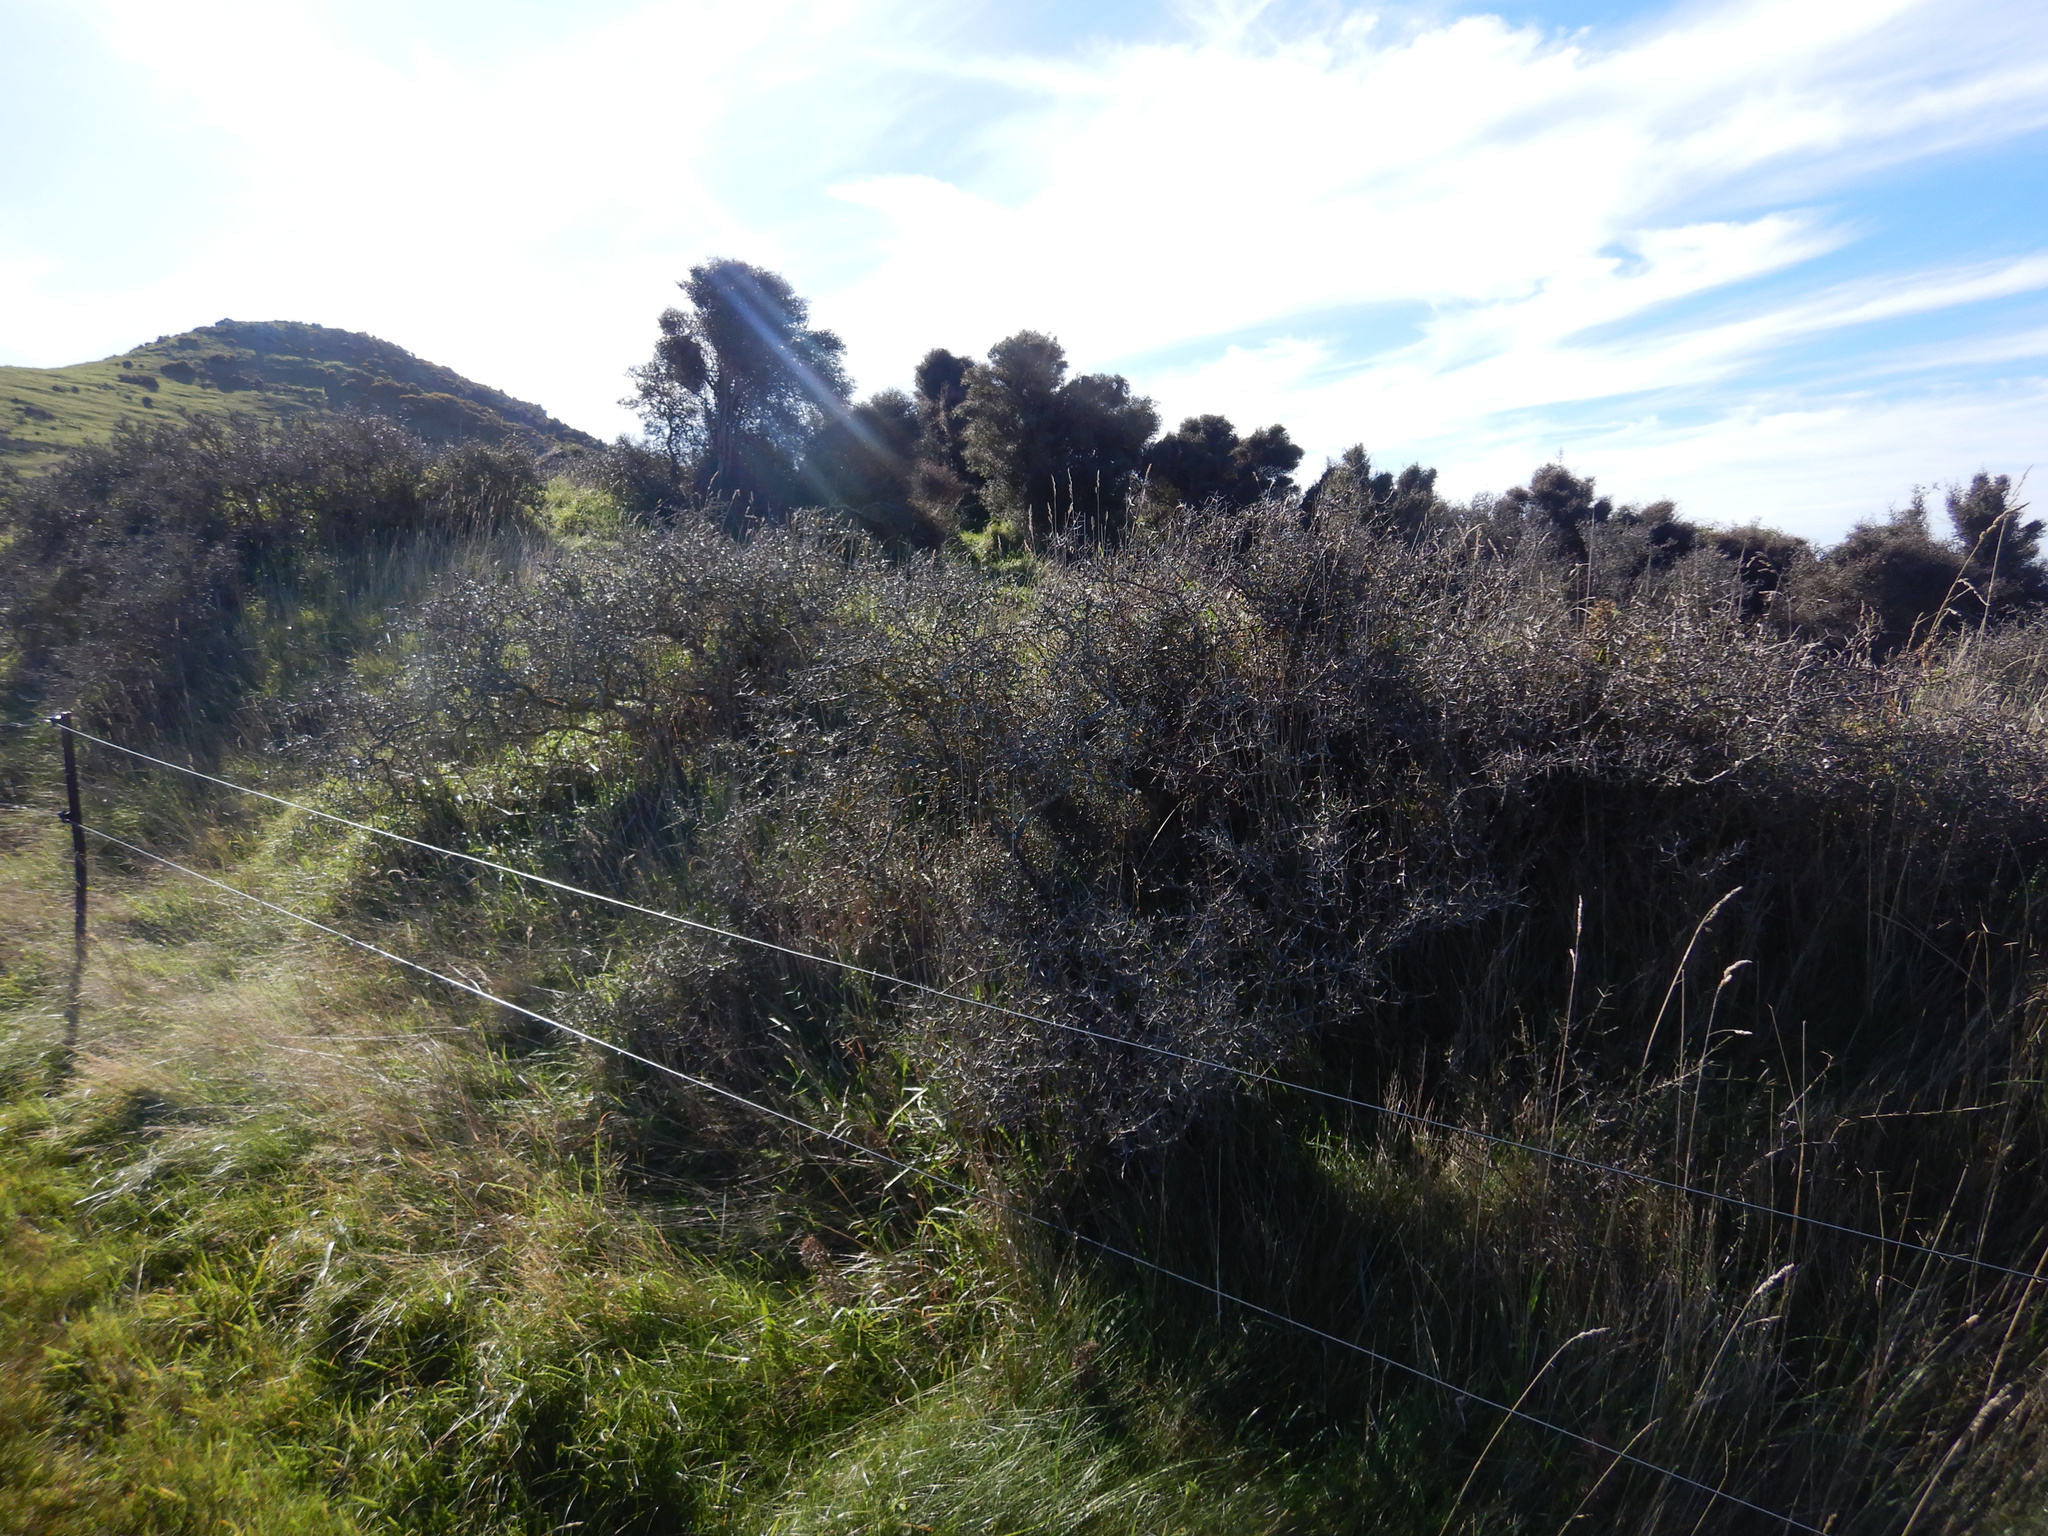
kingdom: Plantae
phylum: Tracheophyta
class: Magnoliopsida
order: Rosales
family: Rhamnaceae
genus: Discaria
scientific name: Discaria toumatou
